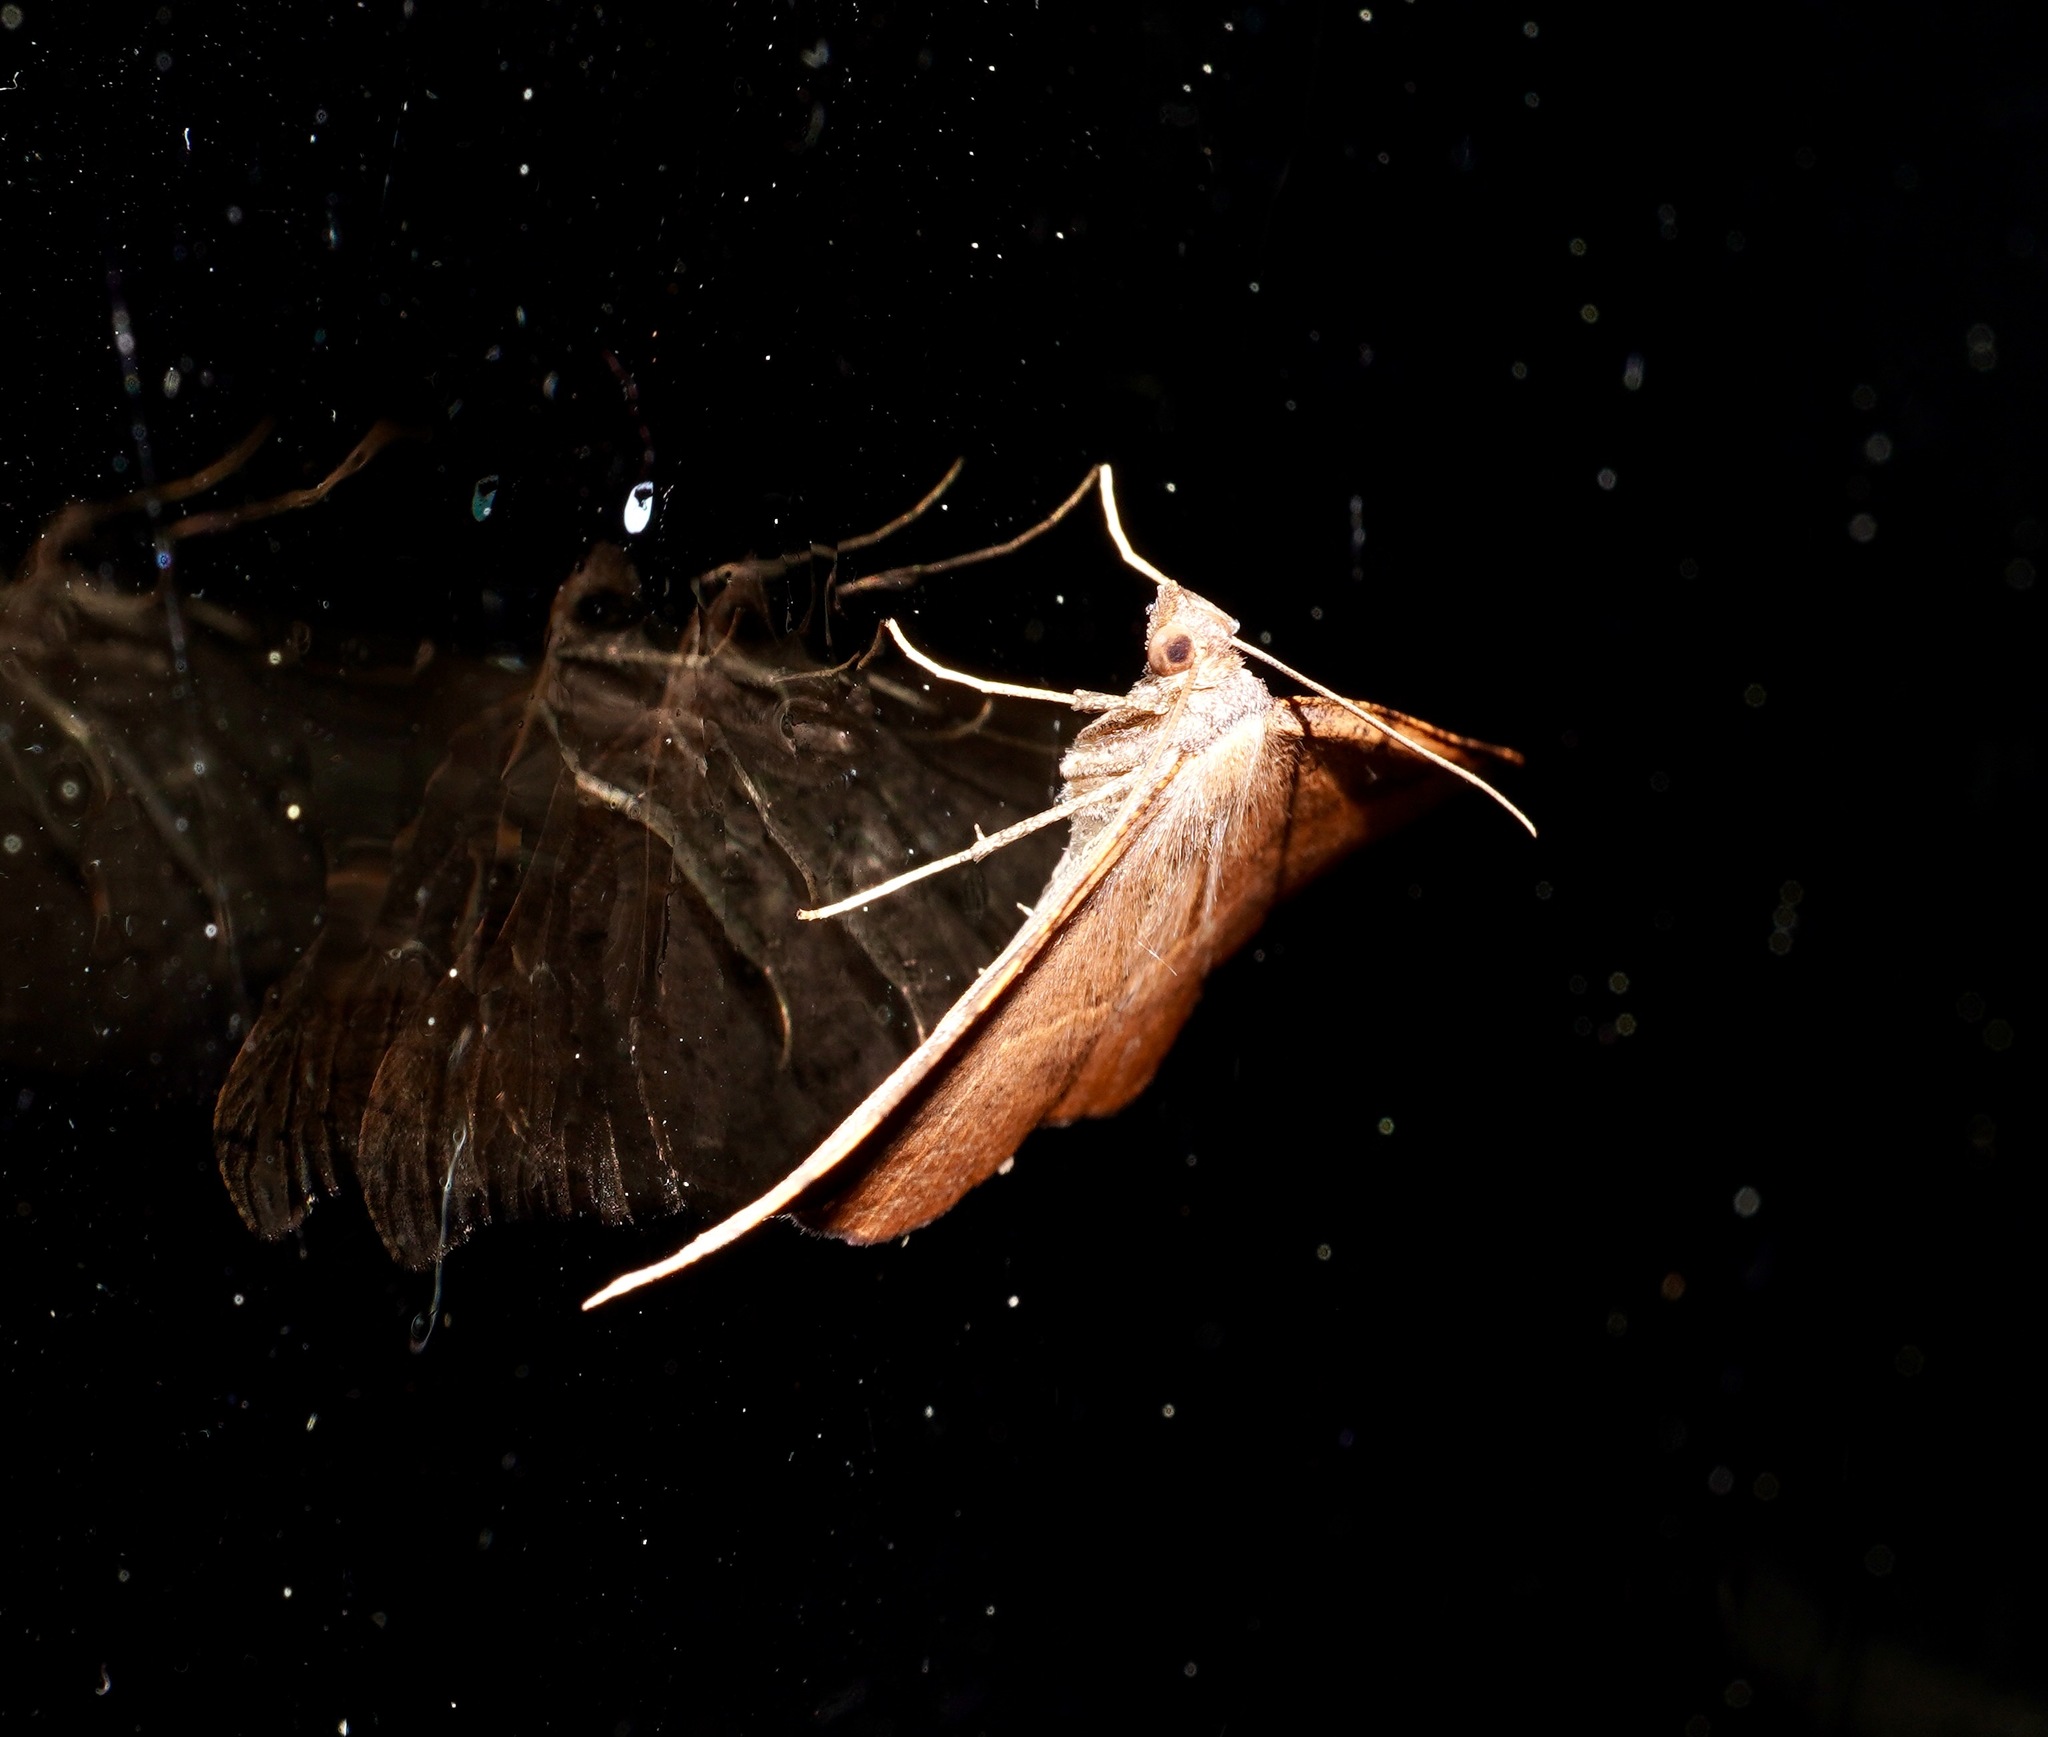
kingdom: Animalia
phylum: Arthropoda
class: Insecta
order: Lepidoptera
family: Geometridae
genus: Sestra
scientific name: Sestra flexata
